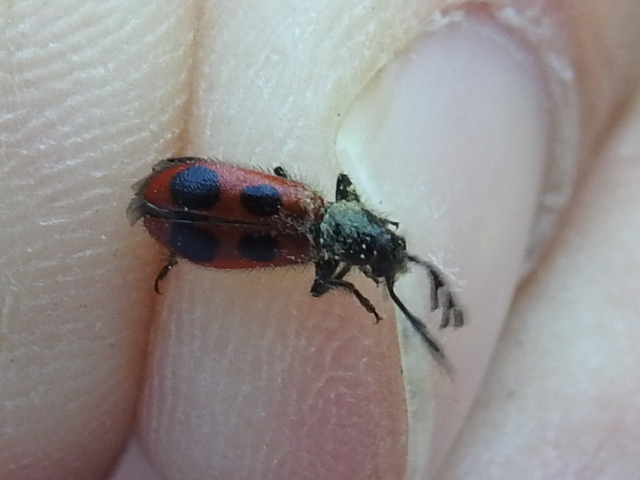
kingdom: Animalia
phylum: Arthropoda
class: Insecta
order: Coleoptera
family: Cleridae
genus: Pelonides
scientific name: Pelonides quadripunctatus
